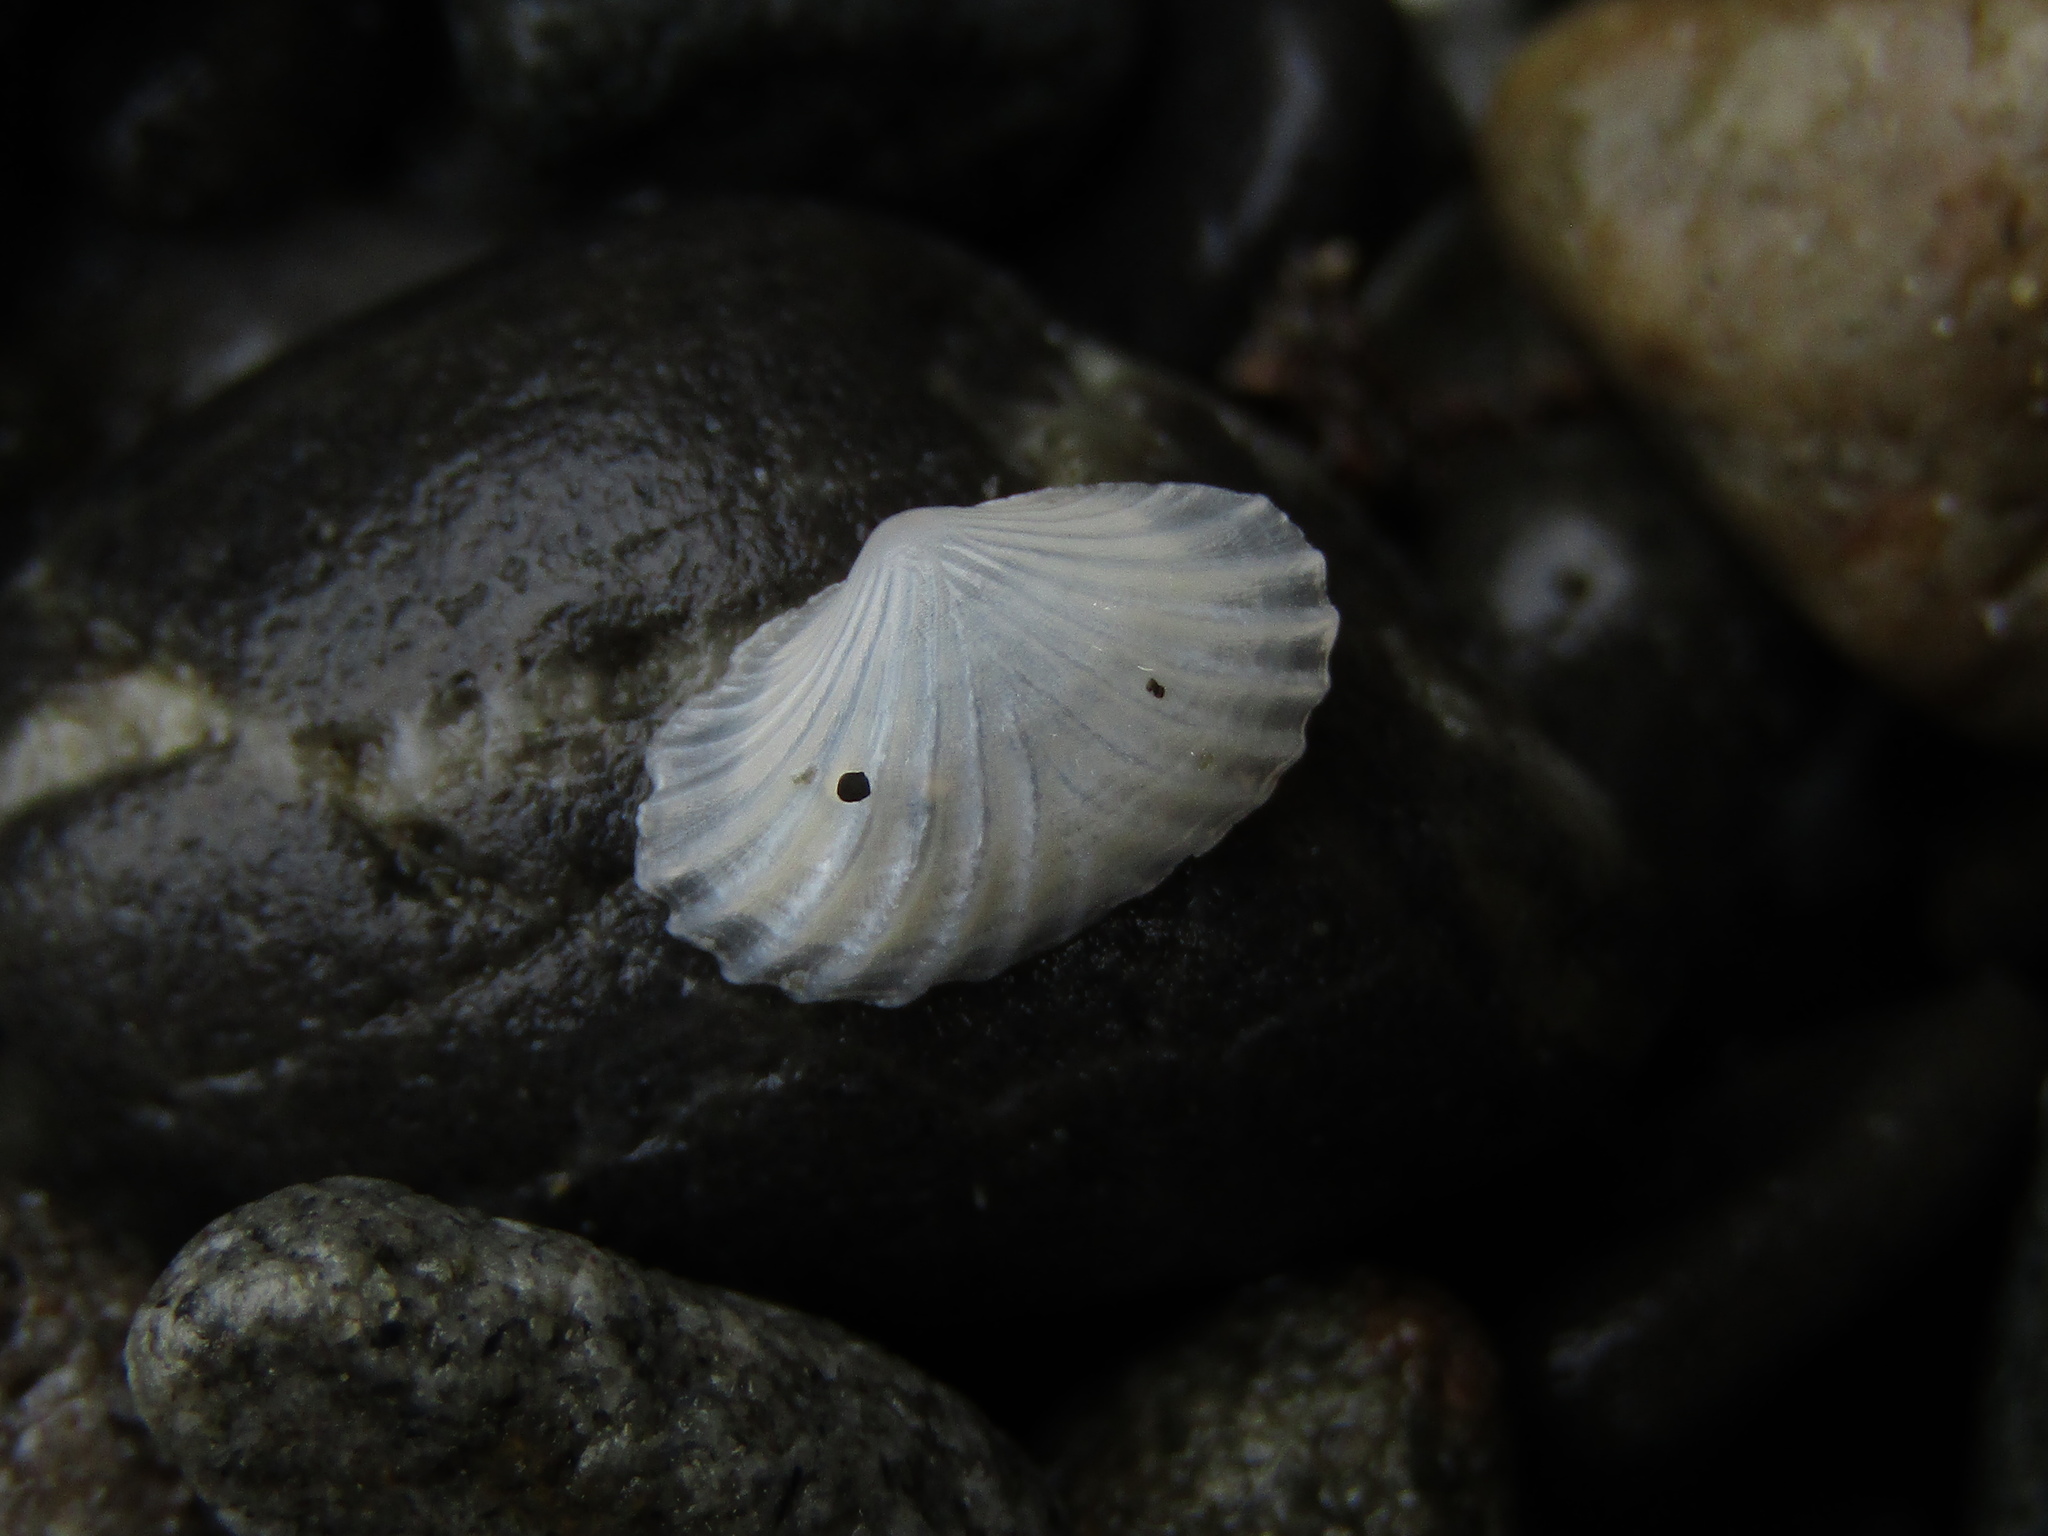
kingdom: Animalia
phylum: Mollusca
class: Bivalvia
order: Galeommatida
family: Lasaeidae
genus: Myllita
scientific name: Myllita stowei
